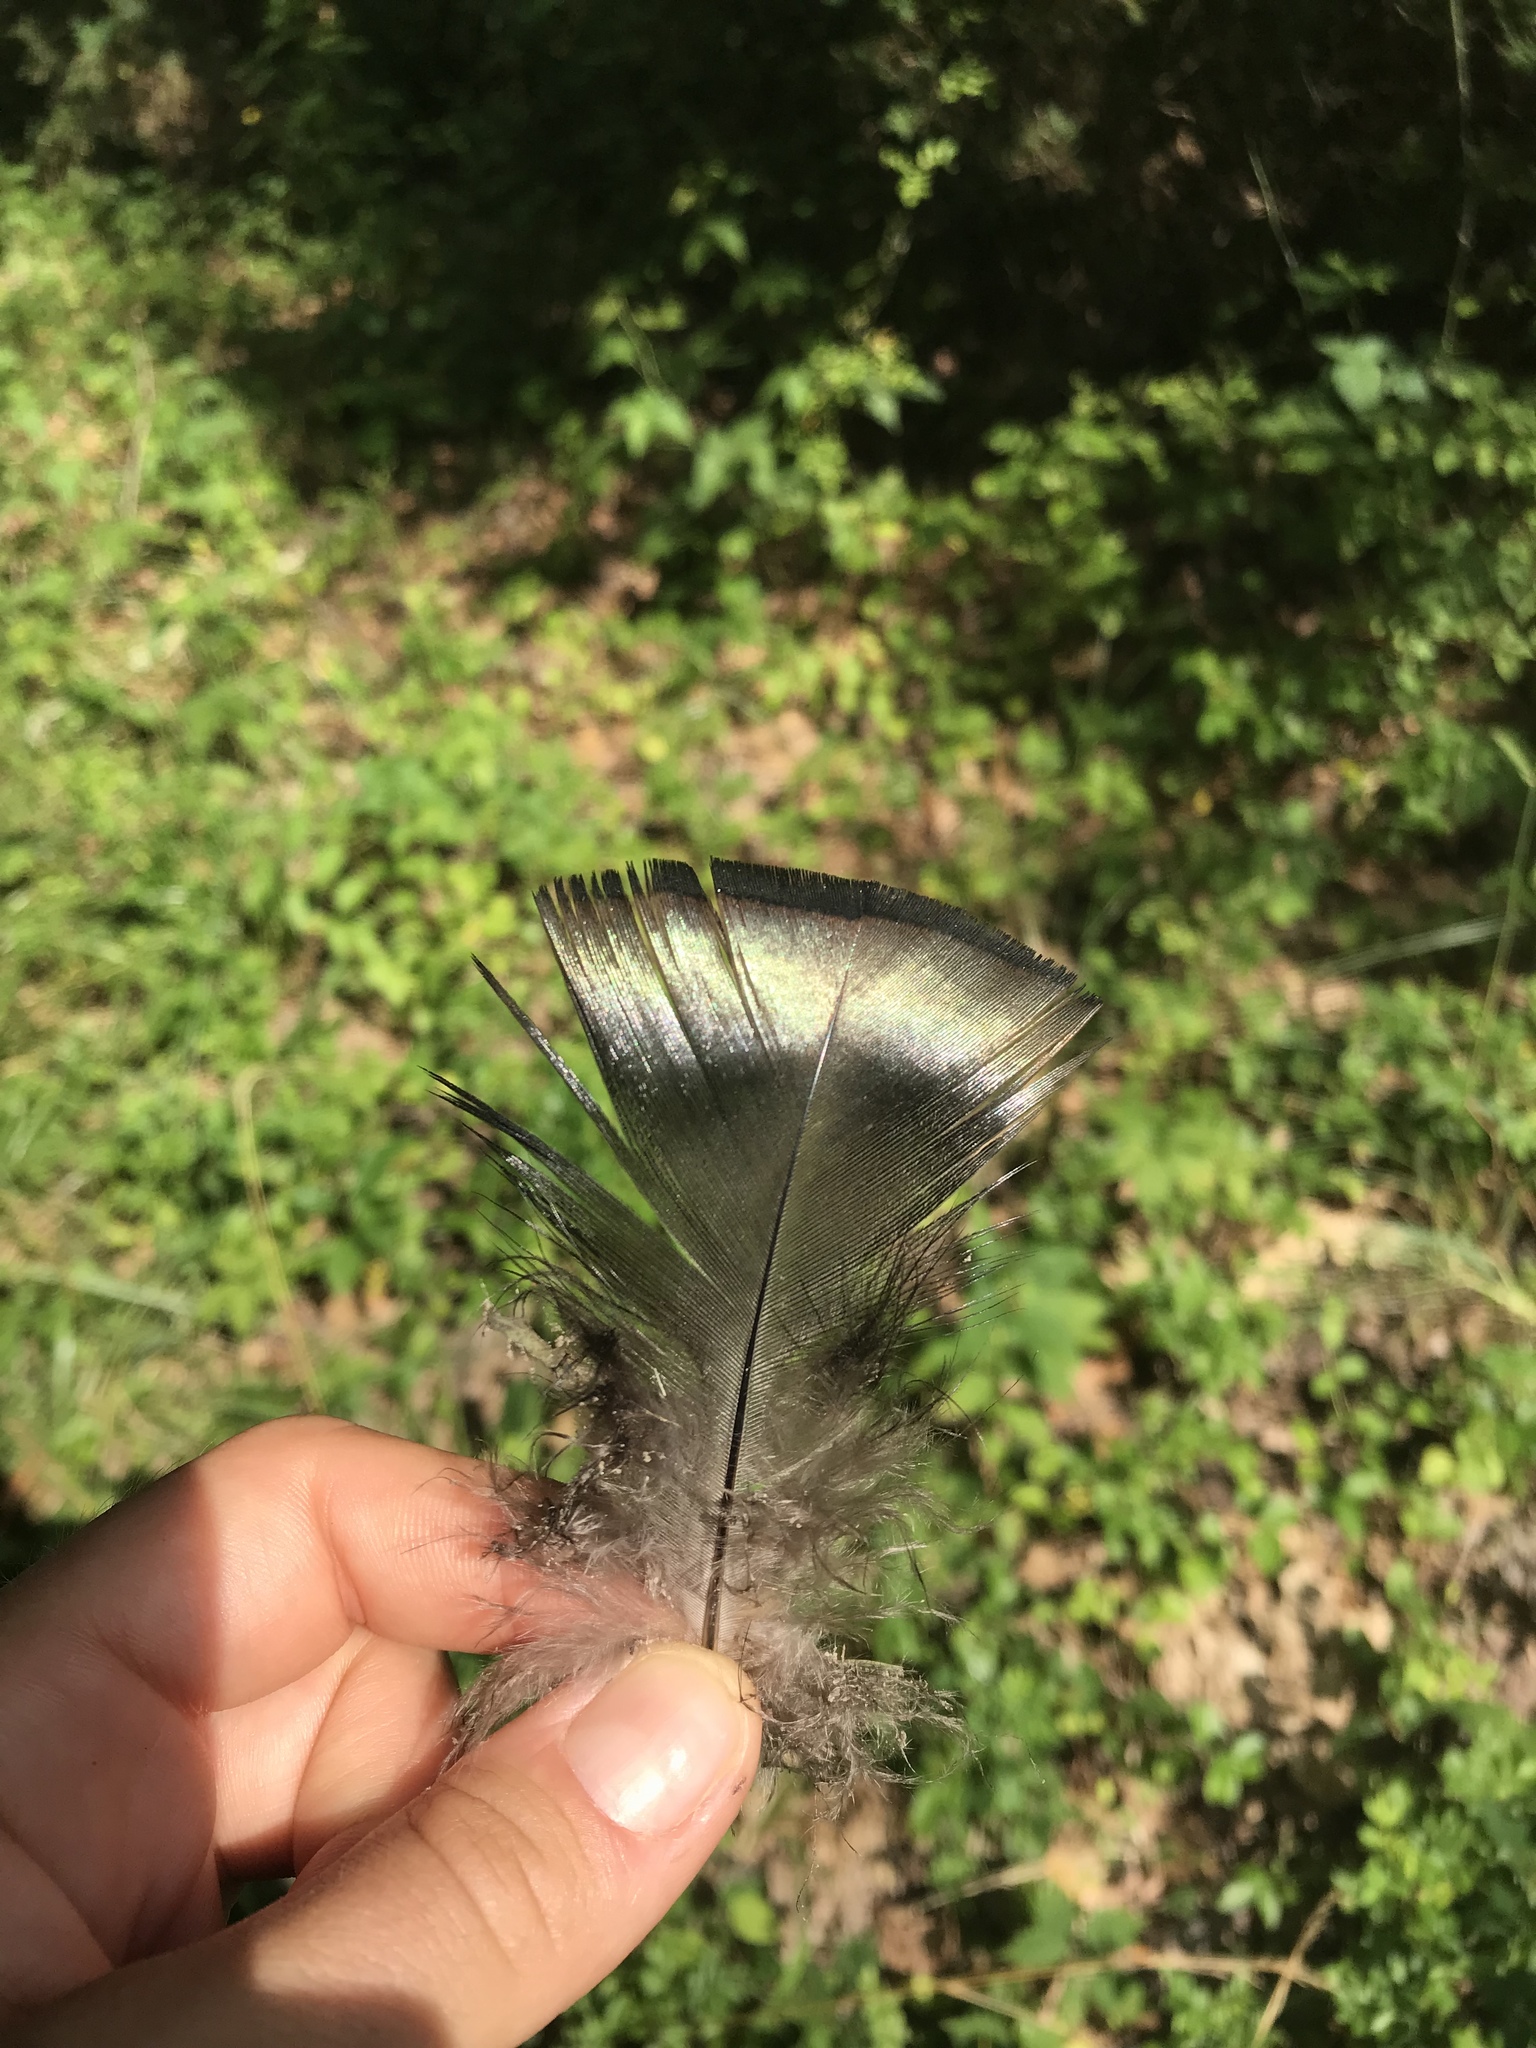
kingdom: Animalia
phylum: Chordata
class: Aves
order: Galliformes
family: Phasianidae
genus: Meleagris
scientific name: Meleagris gallopavo
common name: Wild turkey
